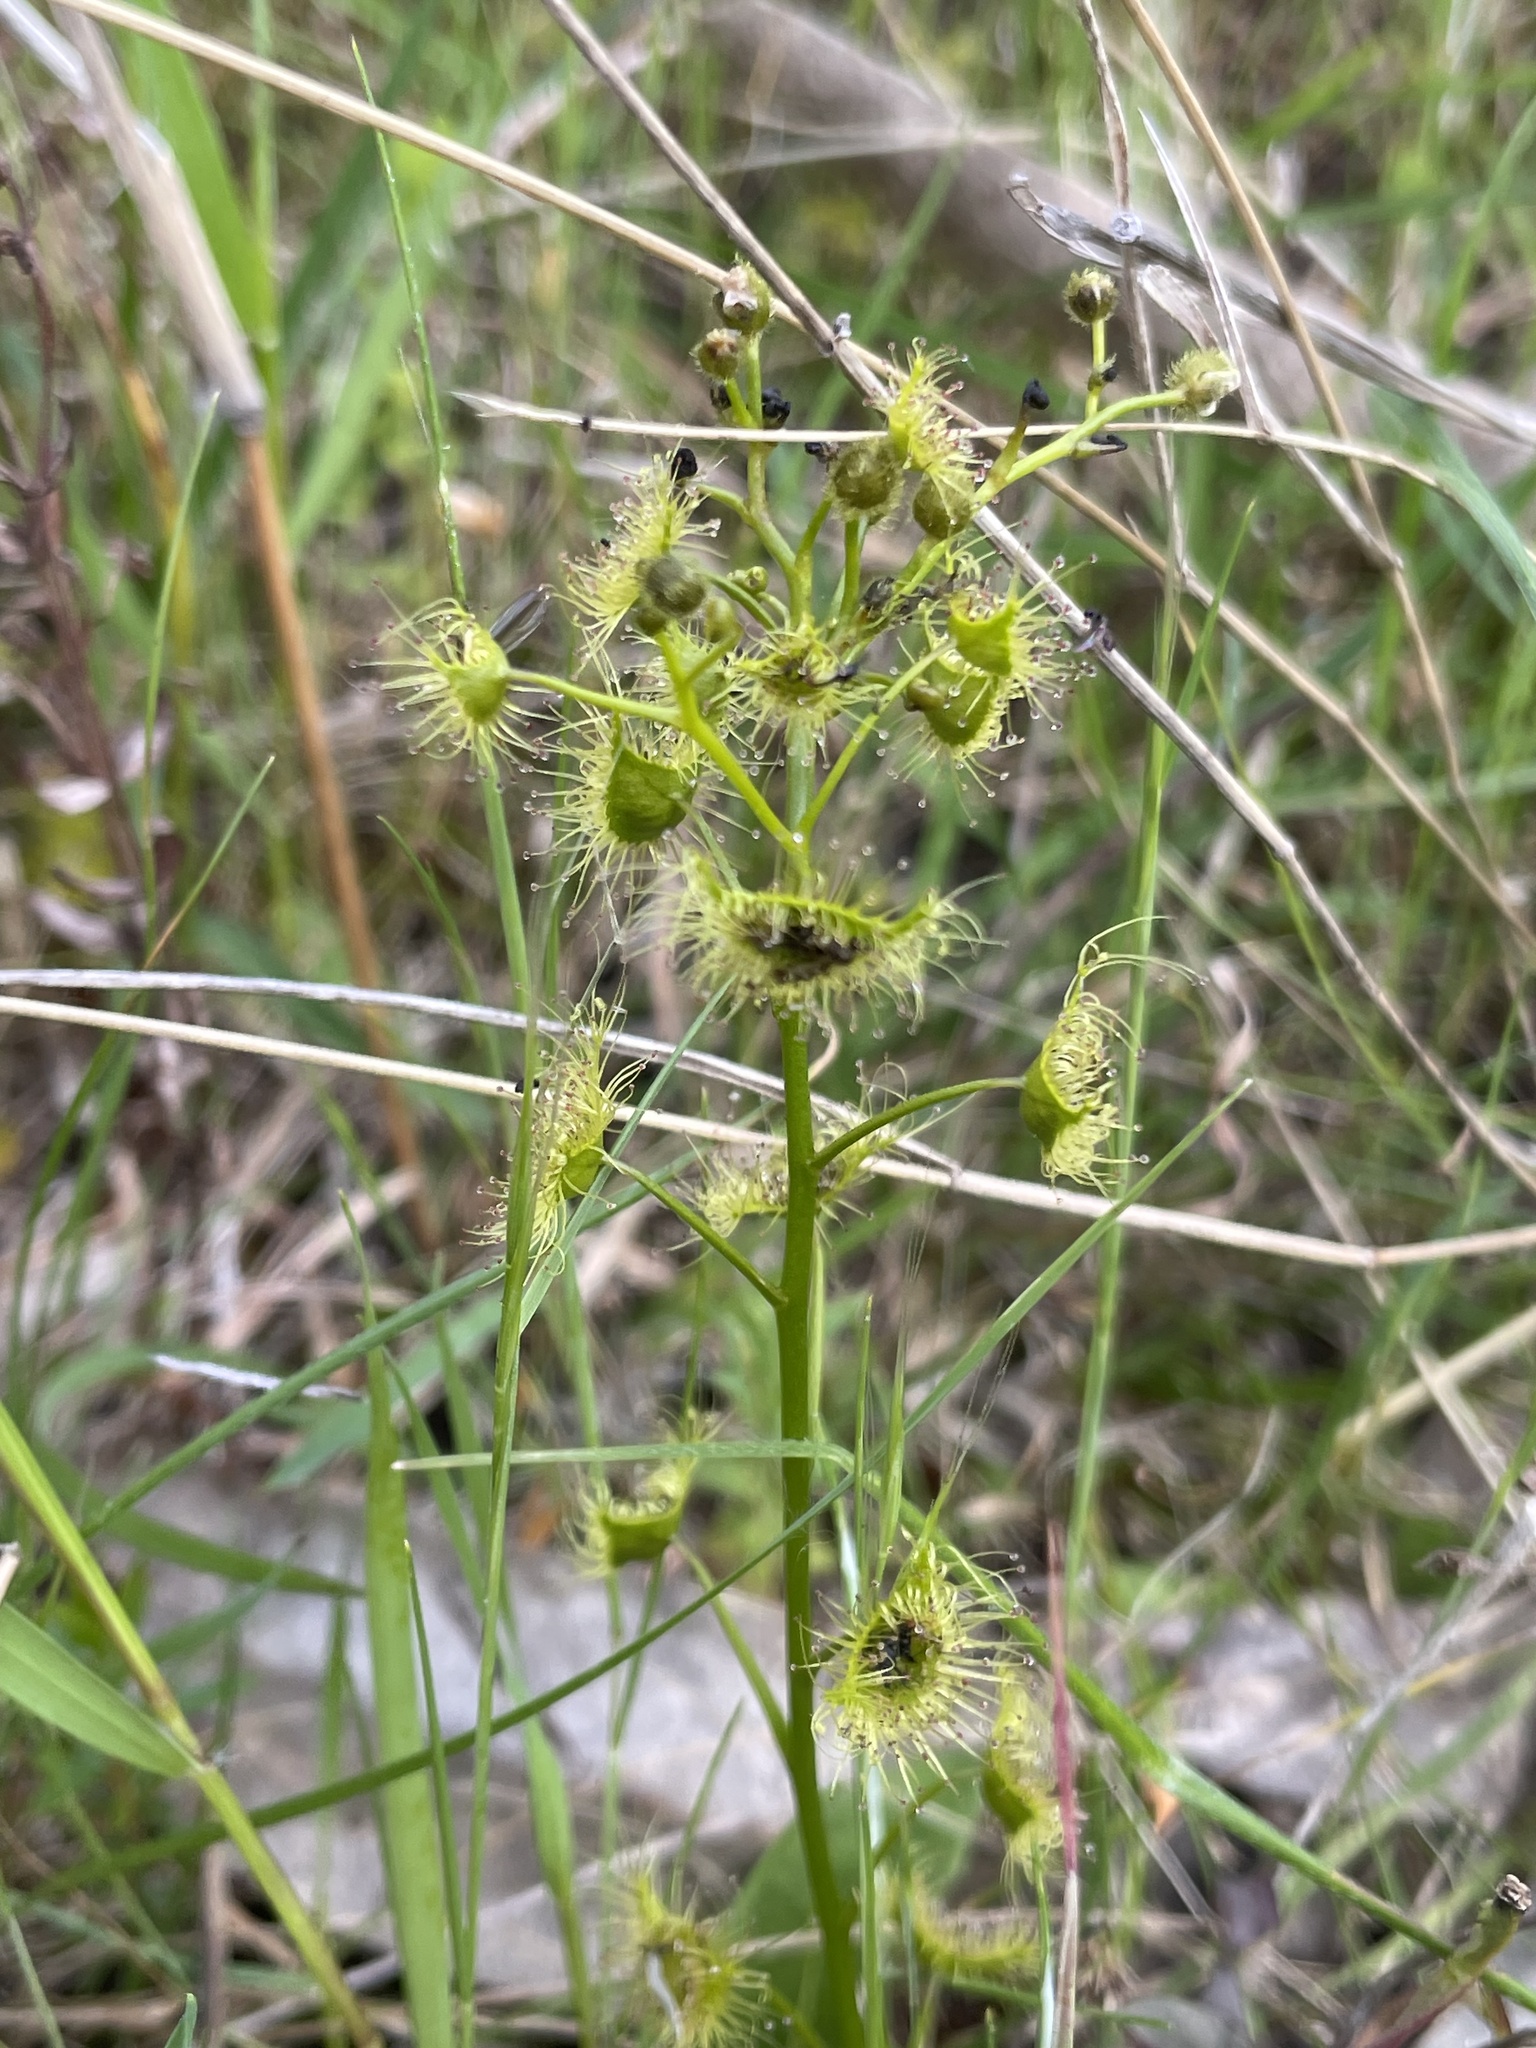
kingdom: Plantae
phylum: Tracheophyta
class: Magnoliopsida
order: Caryophyllales
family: Droseraceae
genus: Drosera
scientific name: Drosera gunniana
